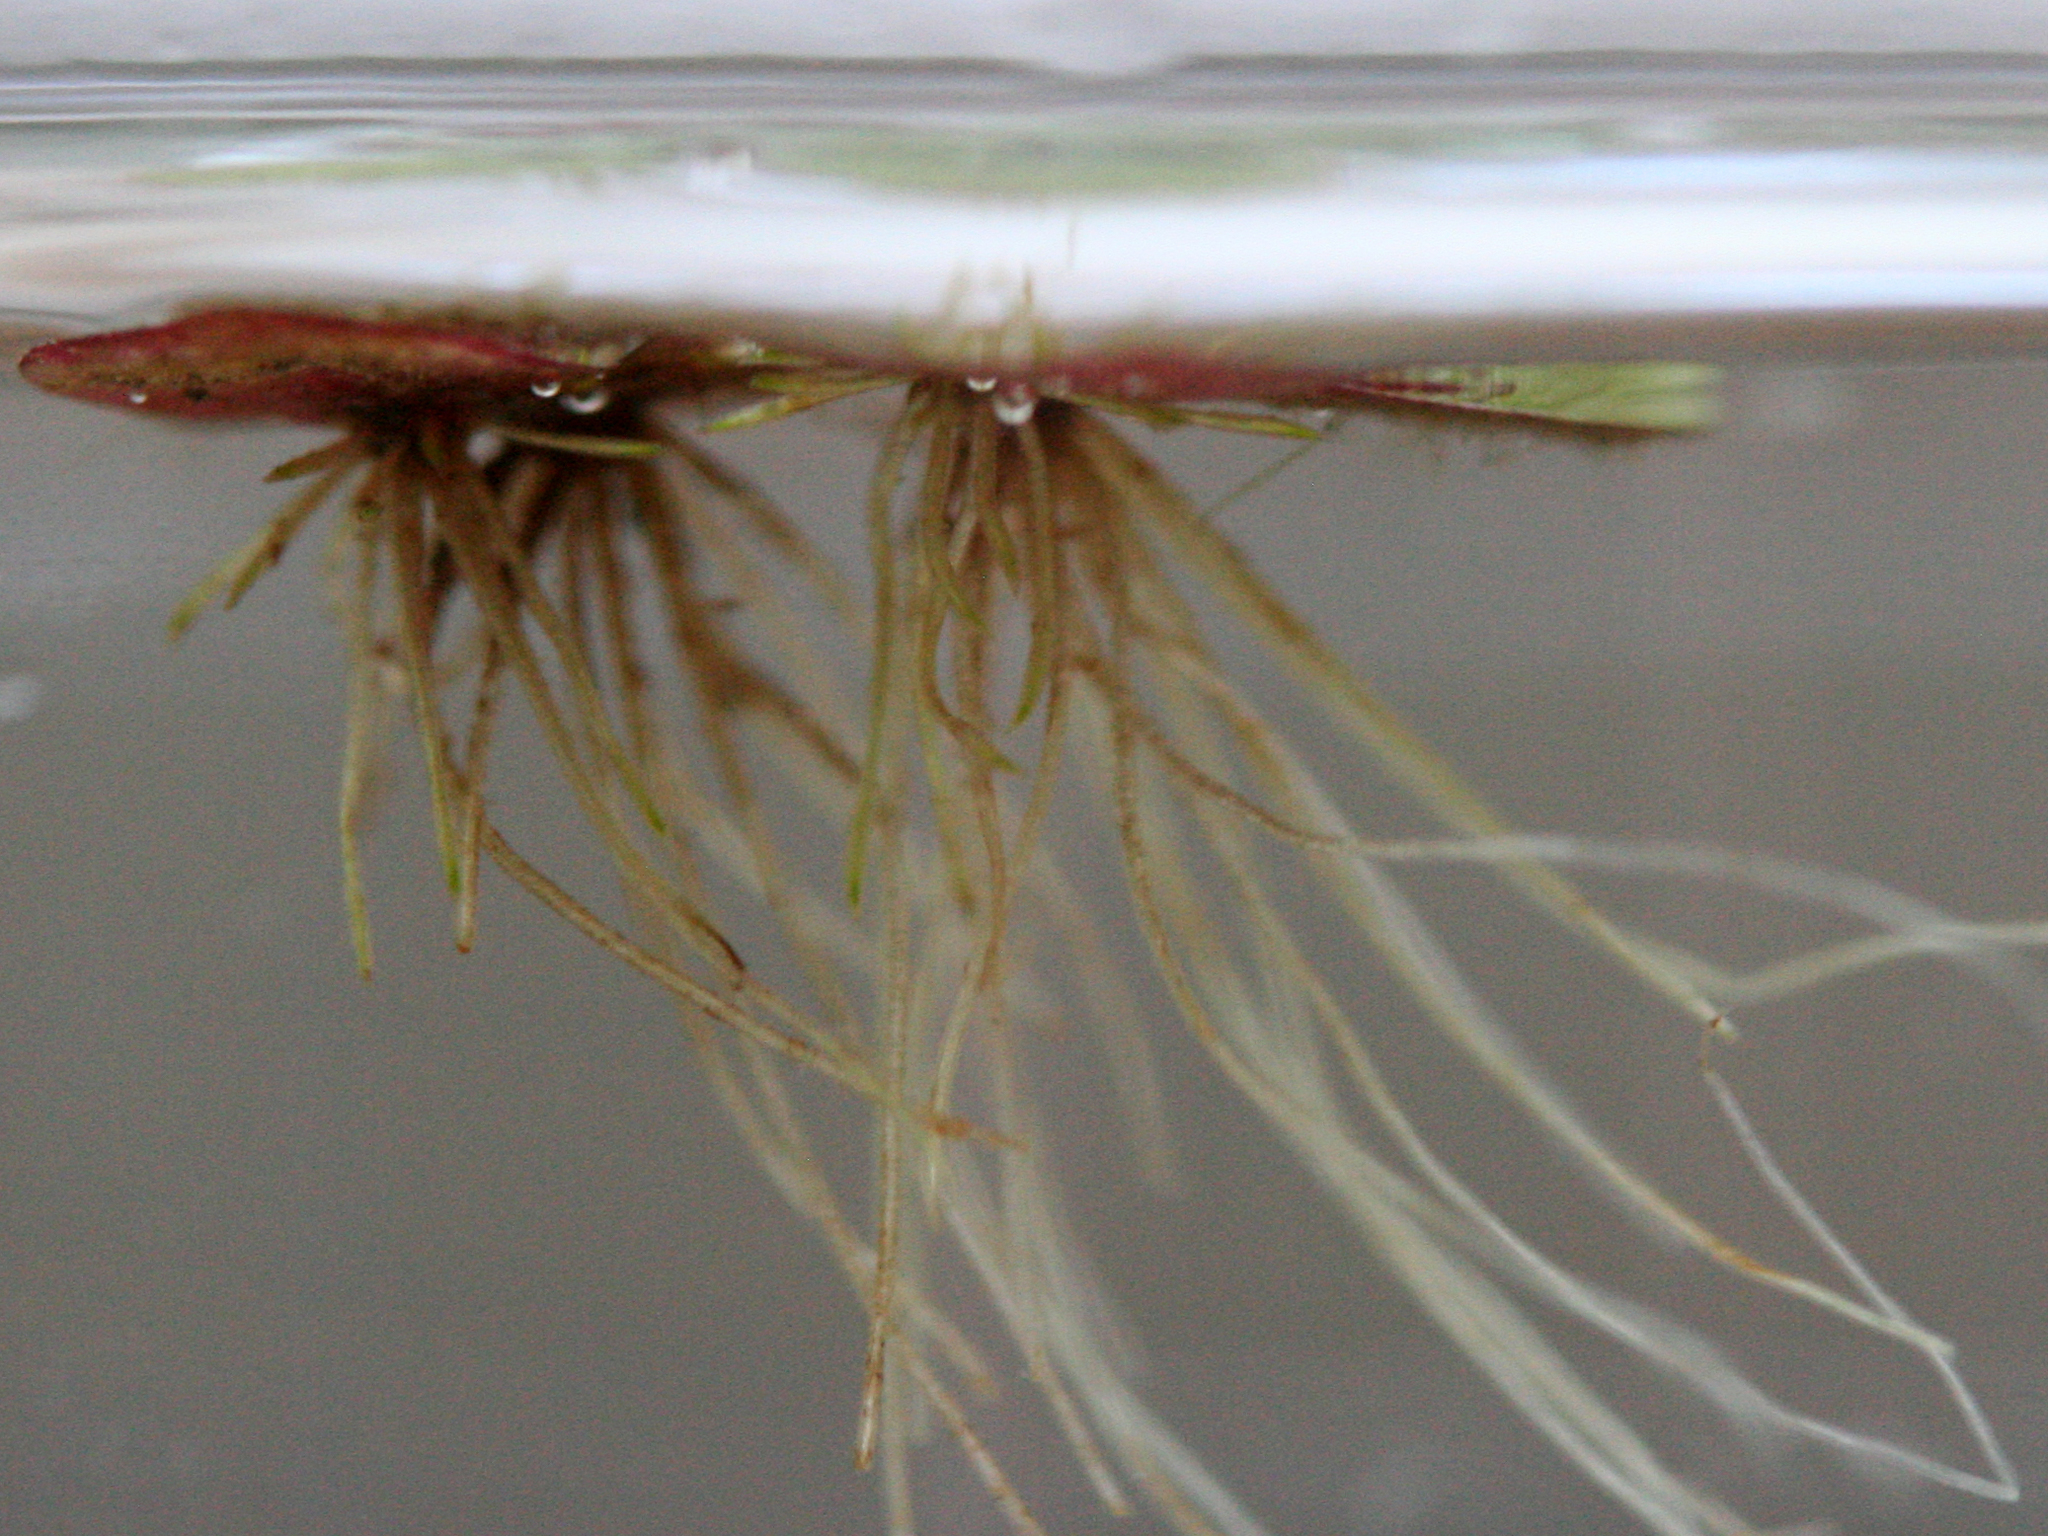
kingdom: Plantae
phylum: Tracheophyta
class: Liliopsida
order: Alismatales
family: Araceae
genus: Spirodela
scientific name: Spirodela polyrhiza
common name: Great duckweed
